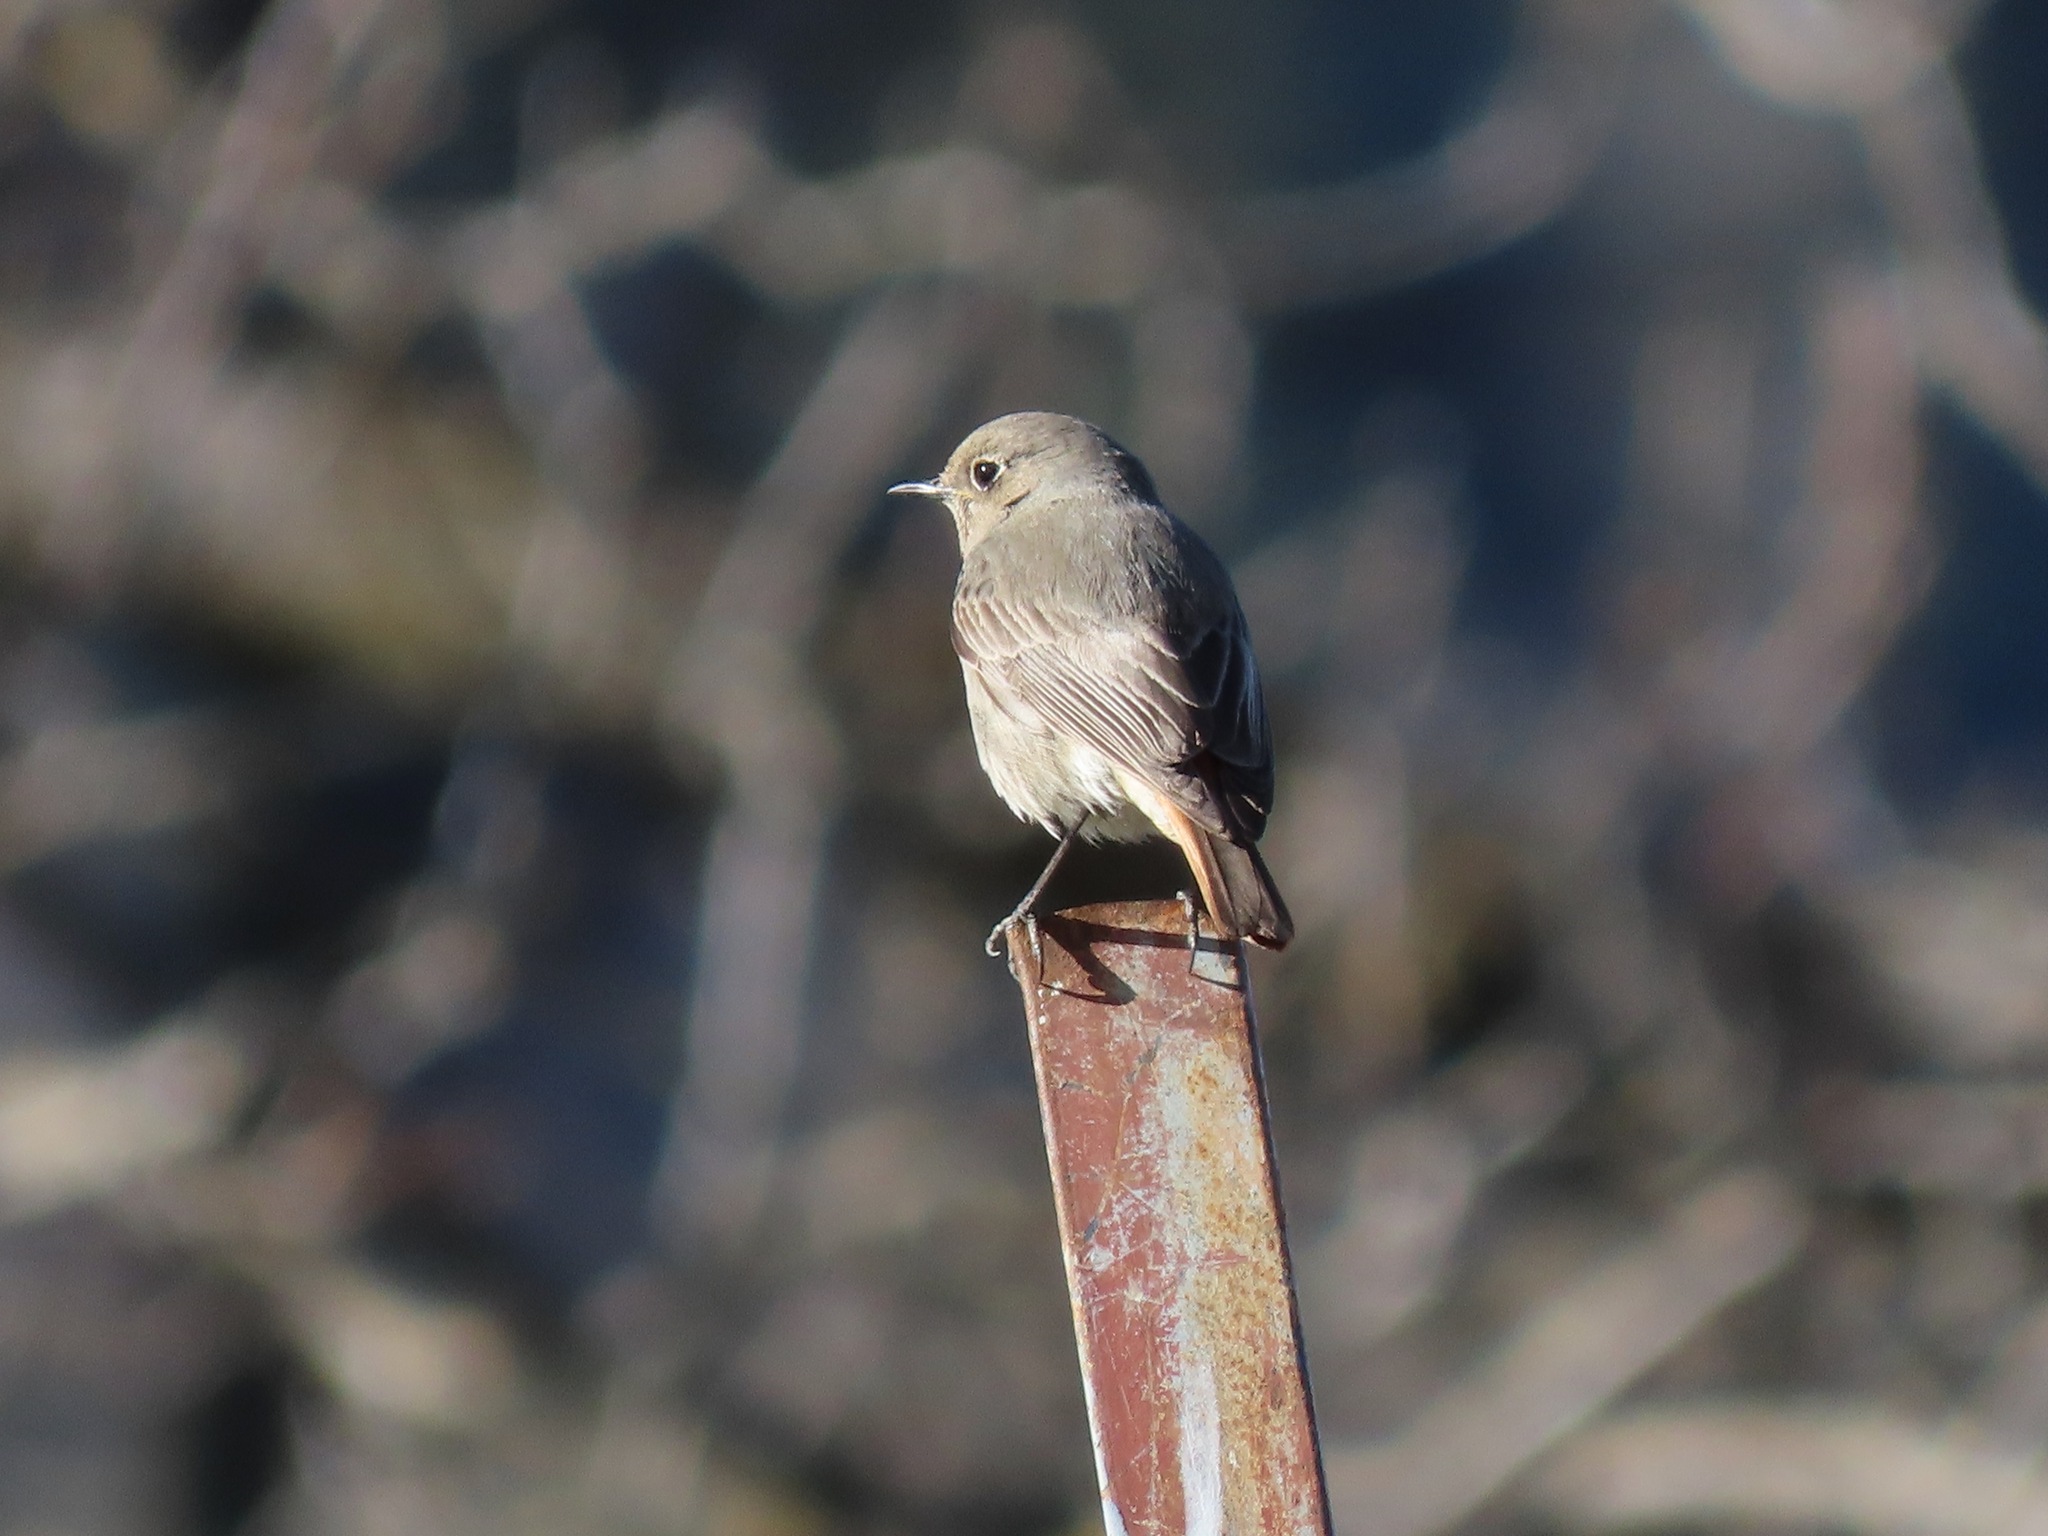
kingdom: Animalia
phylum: Chordata
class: Aves
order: Passeriformes
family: Muscicapidae
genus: Phoenicurus
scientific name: Phoenicurus ochruros
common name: Black redstart
